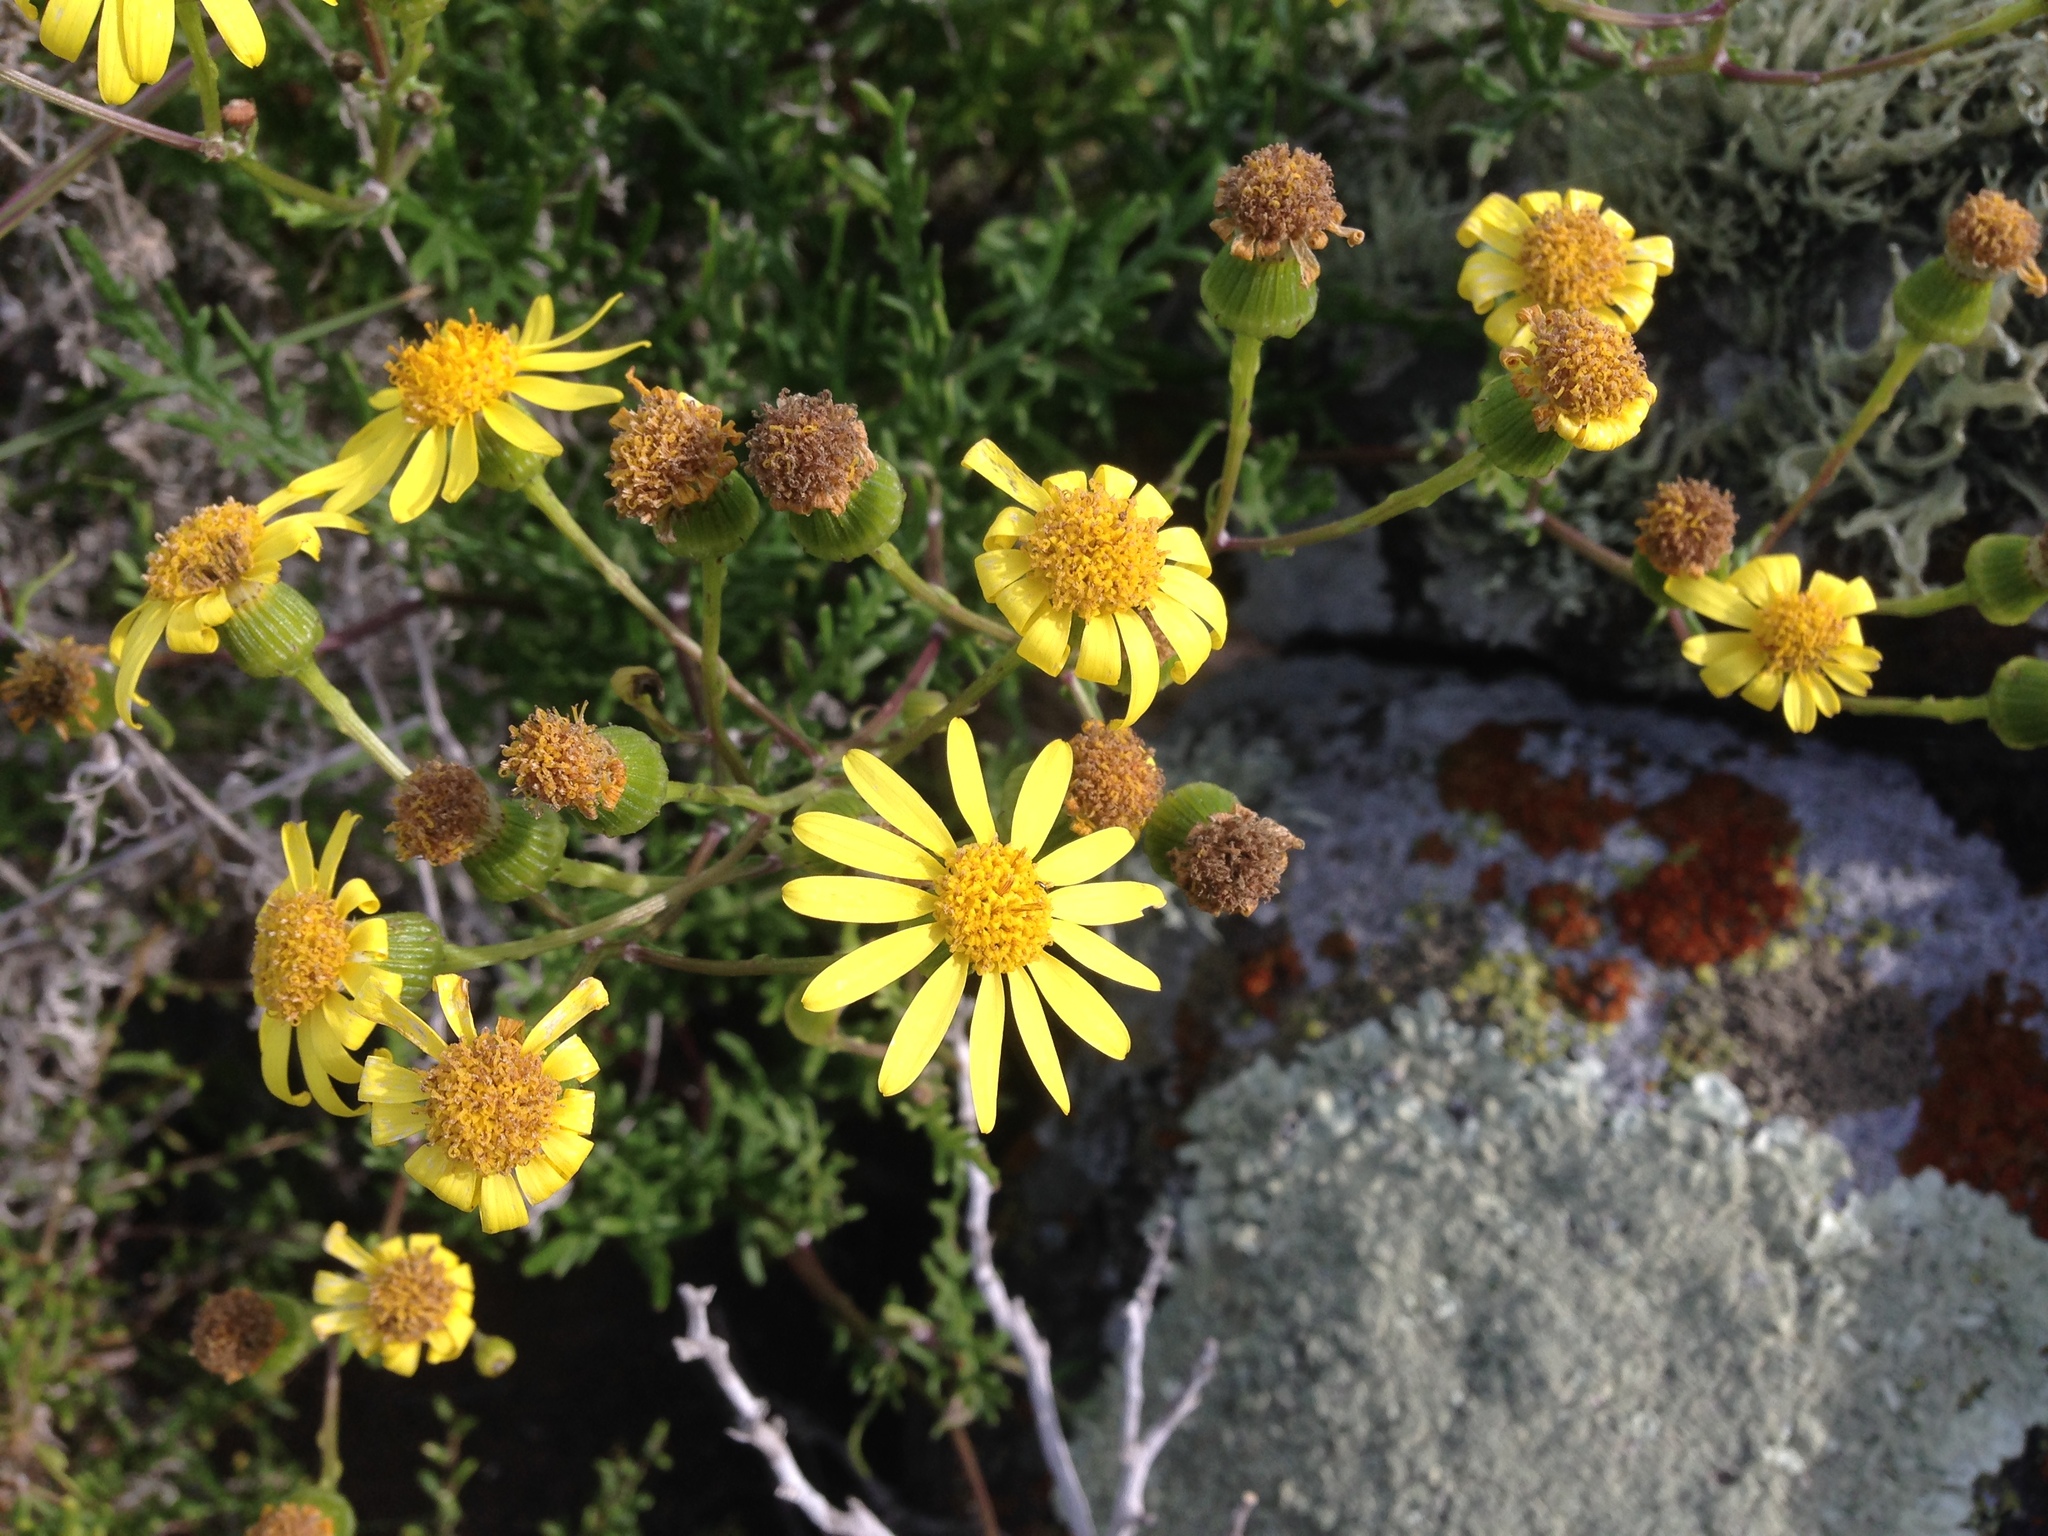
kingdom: Plantae
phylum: Tracheophyta
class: Magnoliopsida
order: Asterales
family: Asteraceae
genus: Senecio
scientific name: Senecio lyonii
